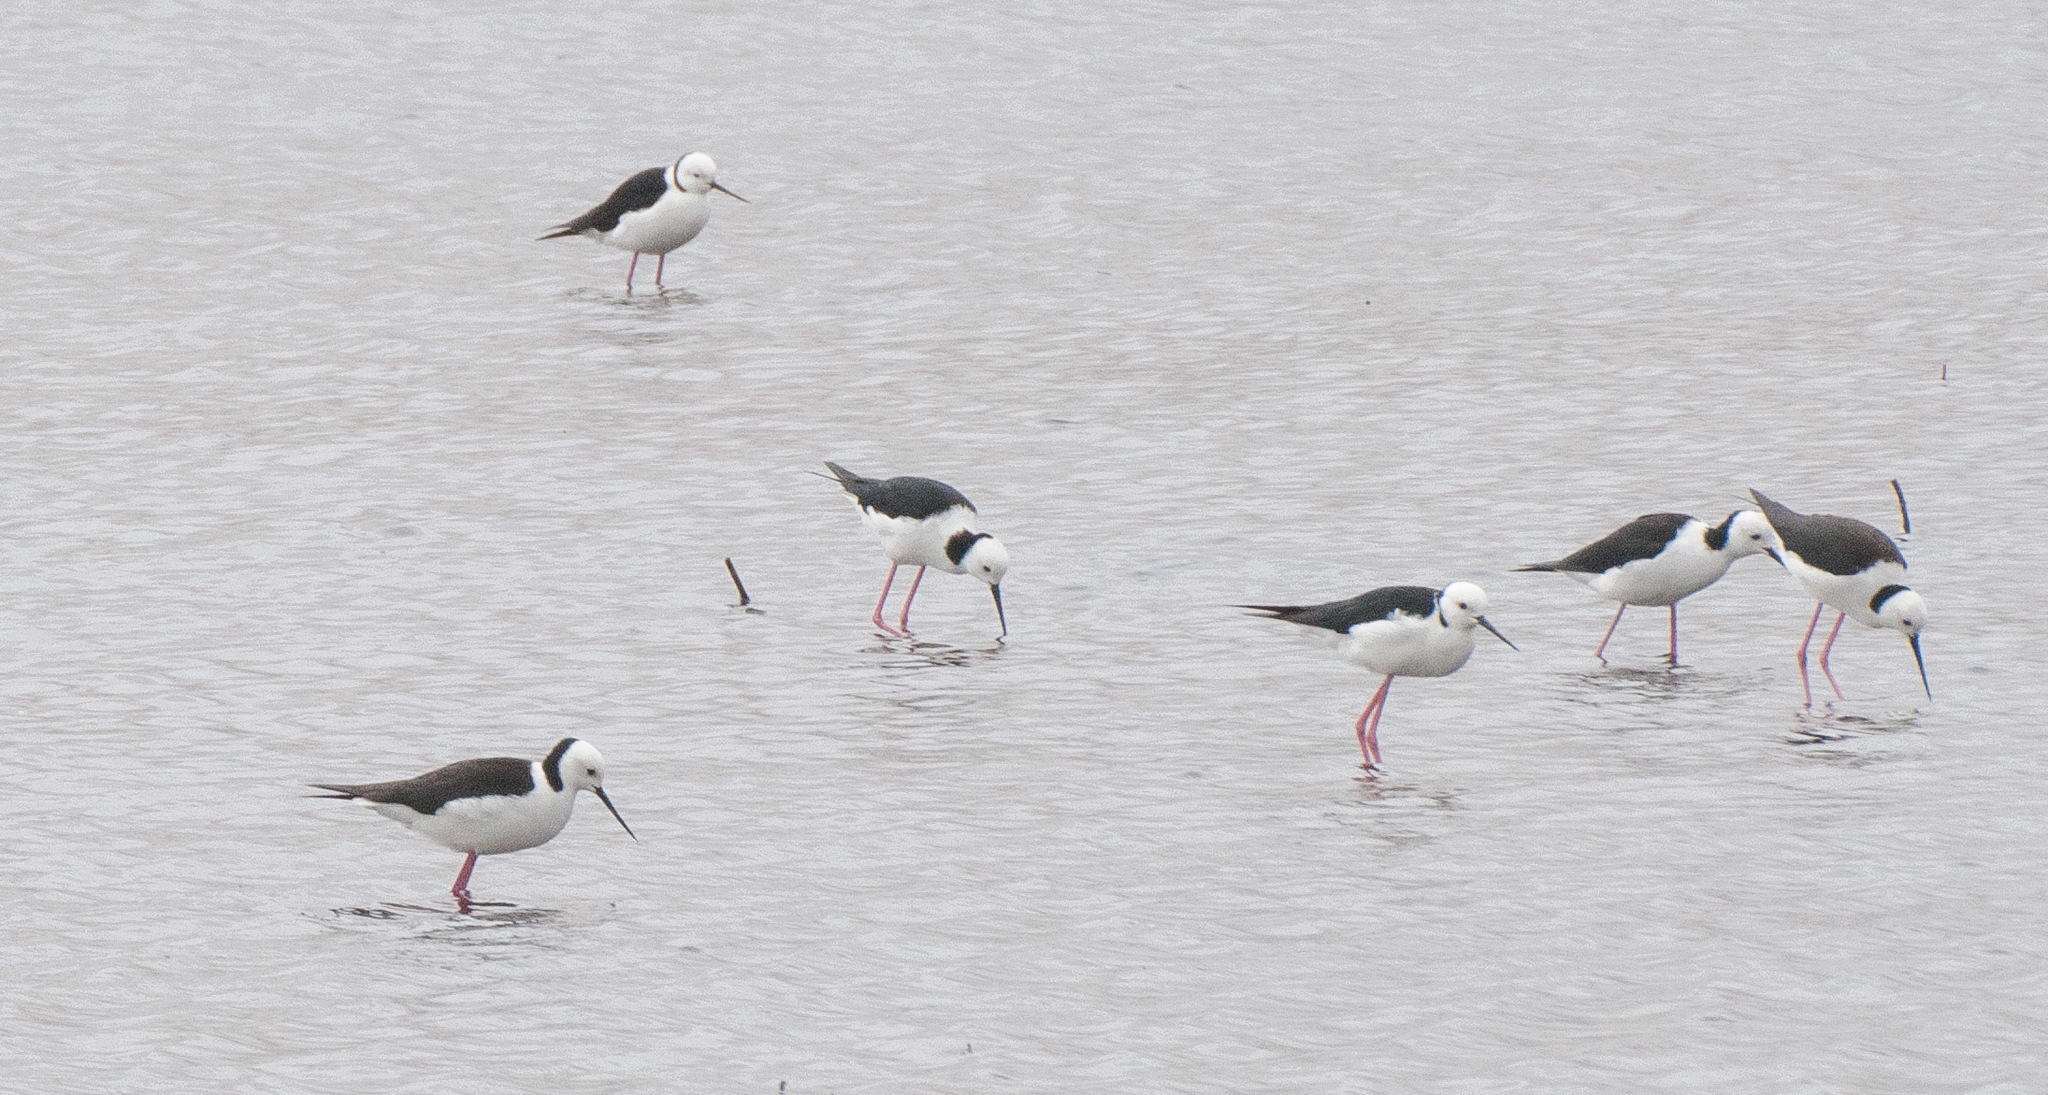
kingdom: Animalia
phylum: Chordata
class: Aves
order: Charadriiformes
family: Recurvirostridae
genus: Himantopus
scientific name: Himantopus leucocephalus
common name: White-headed stilt
